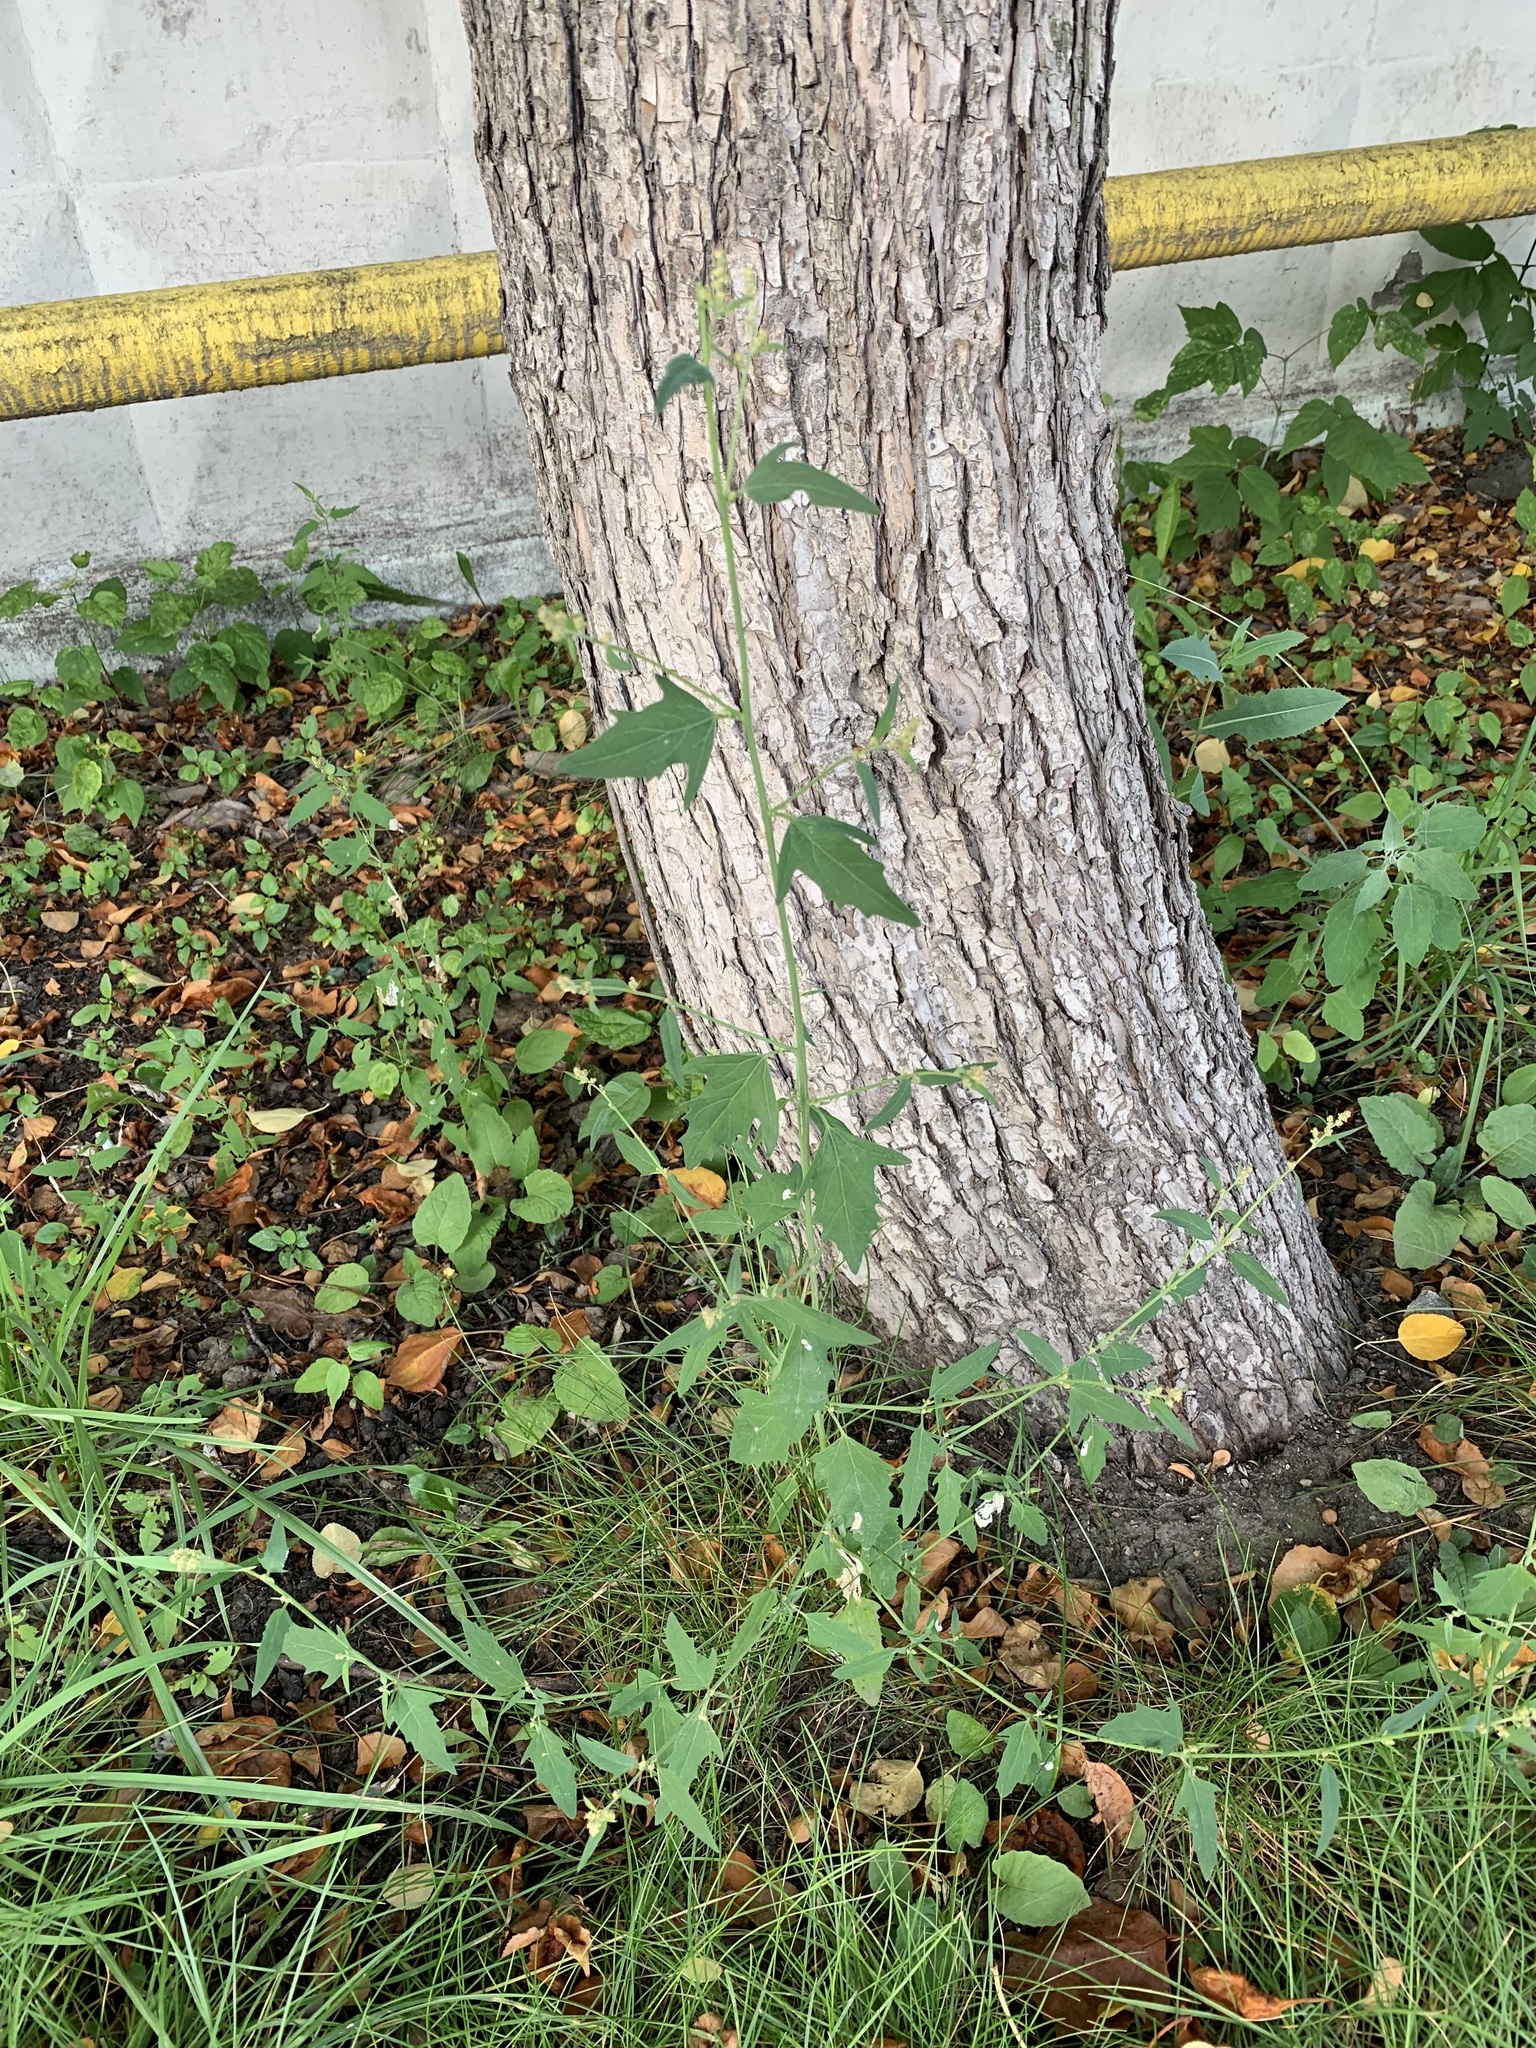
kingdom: Plantae
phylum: Tracheophyta
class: Magnoliopsida
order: Caryophyllales
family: Amaranthaceae
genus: Atriplex
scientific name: Atriplex patula
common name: Common orache
